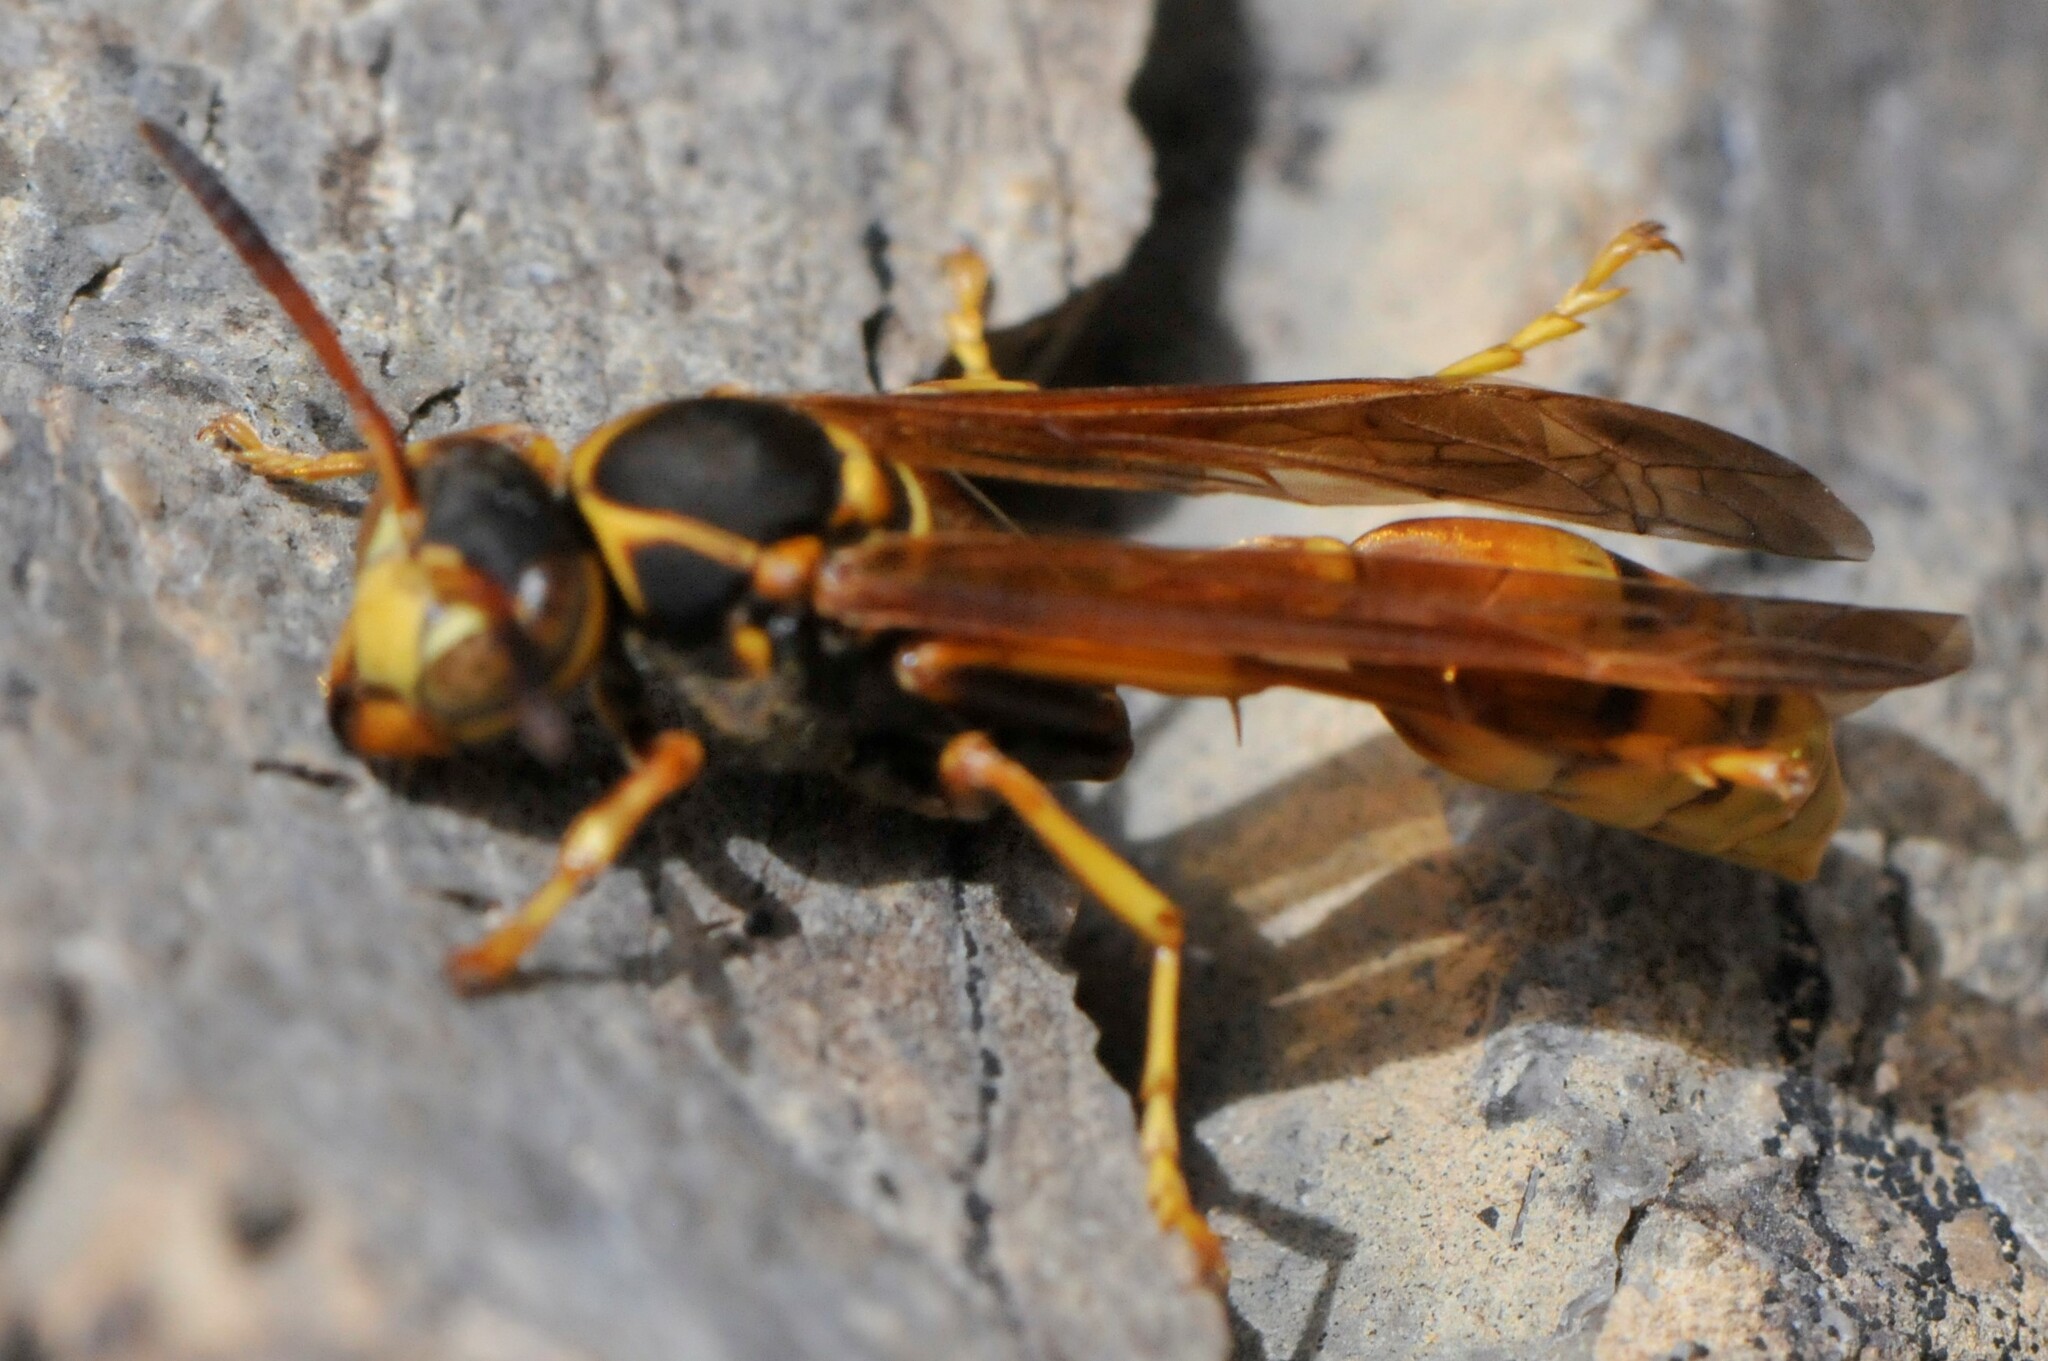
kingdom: Animalia
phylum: Arthropoda
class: Insecta
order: Hymenoptera
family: Vespidae
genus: Mischocyttarus
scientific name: Mischocyttarus flavitarsis
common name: Wasp
